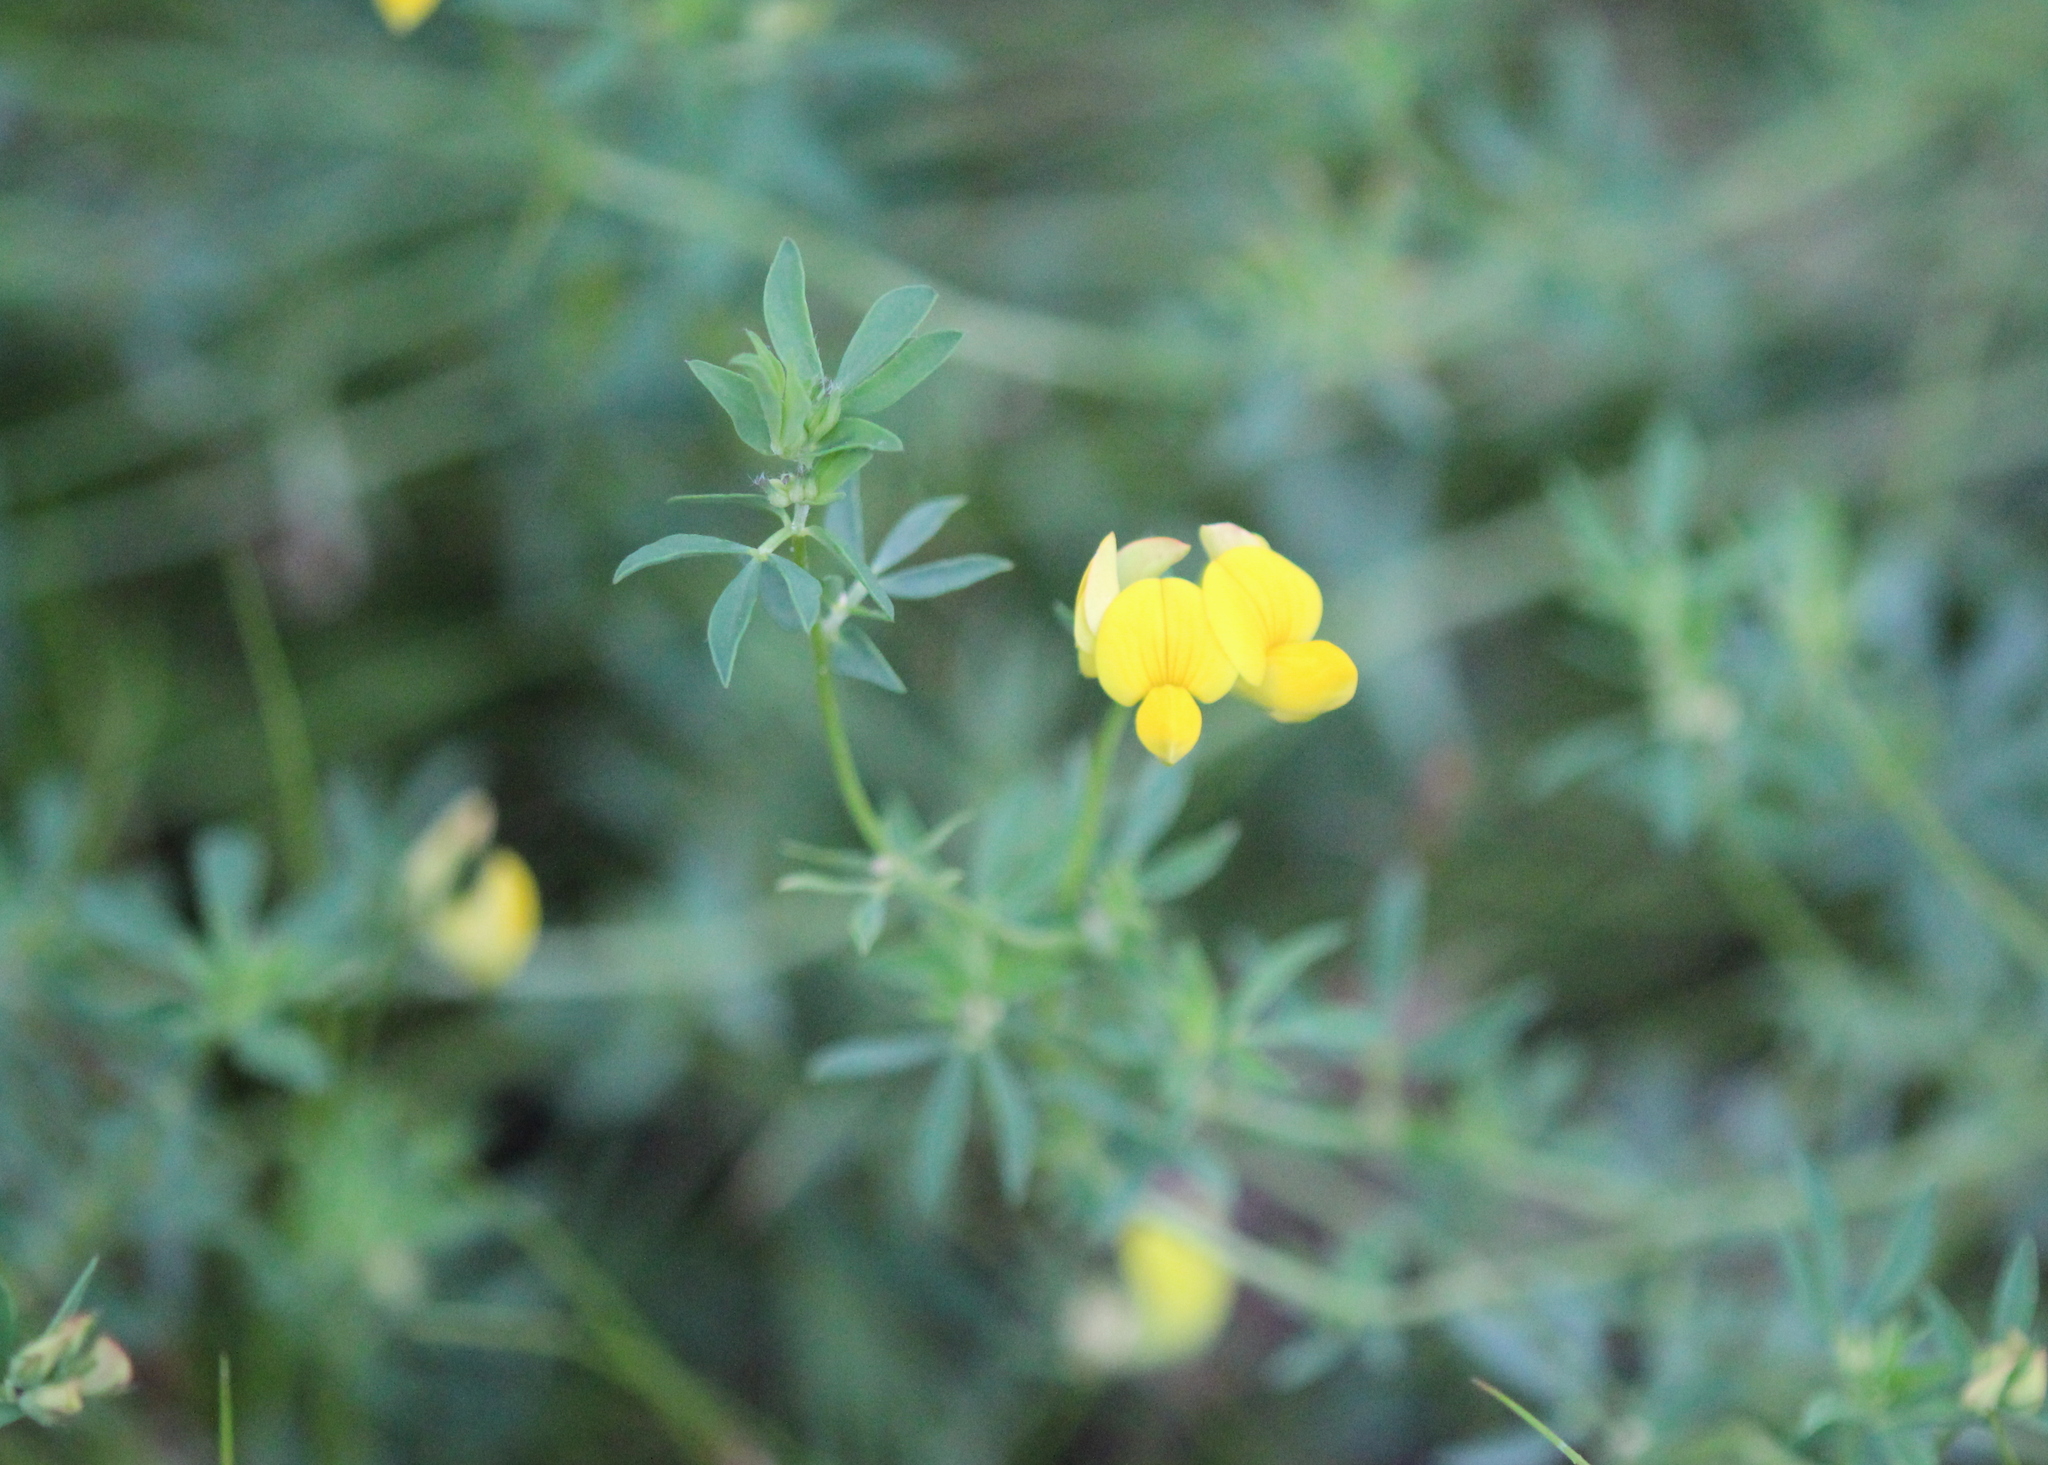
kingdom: Plantae
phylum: Tracheophyta
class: Magnoliopsida
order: Fabales
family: Fabaceae
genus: Lotus
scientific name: Lotus tenuis
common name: Narrow-leaved bird's-foot-trefoil
